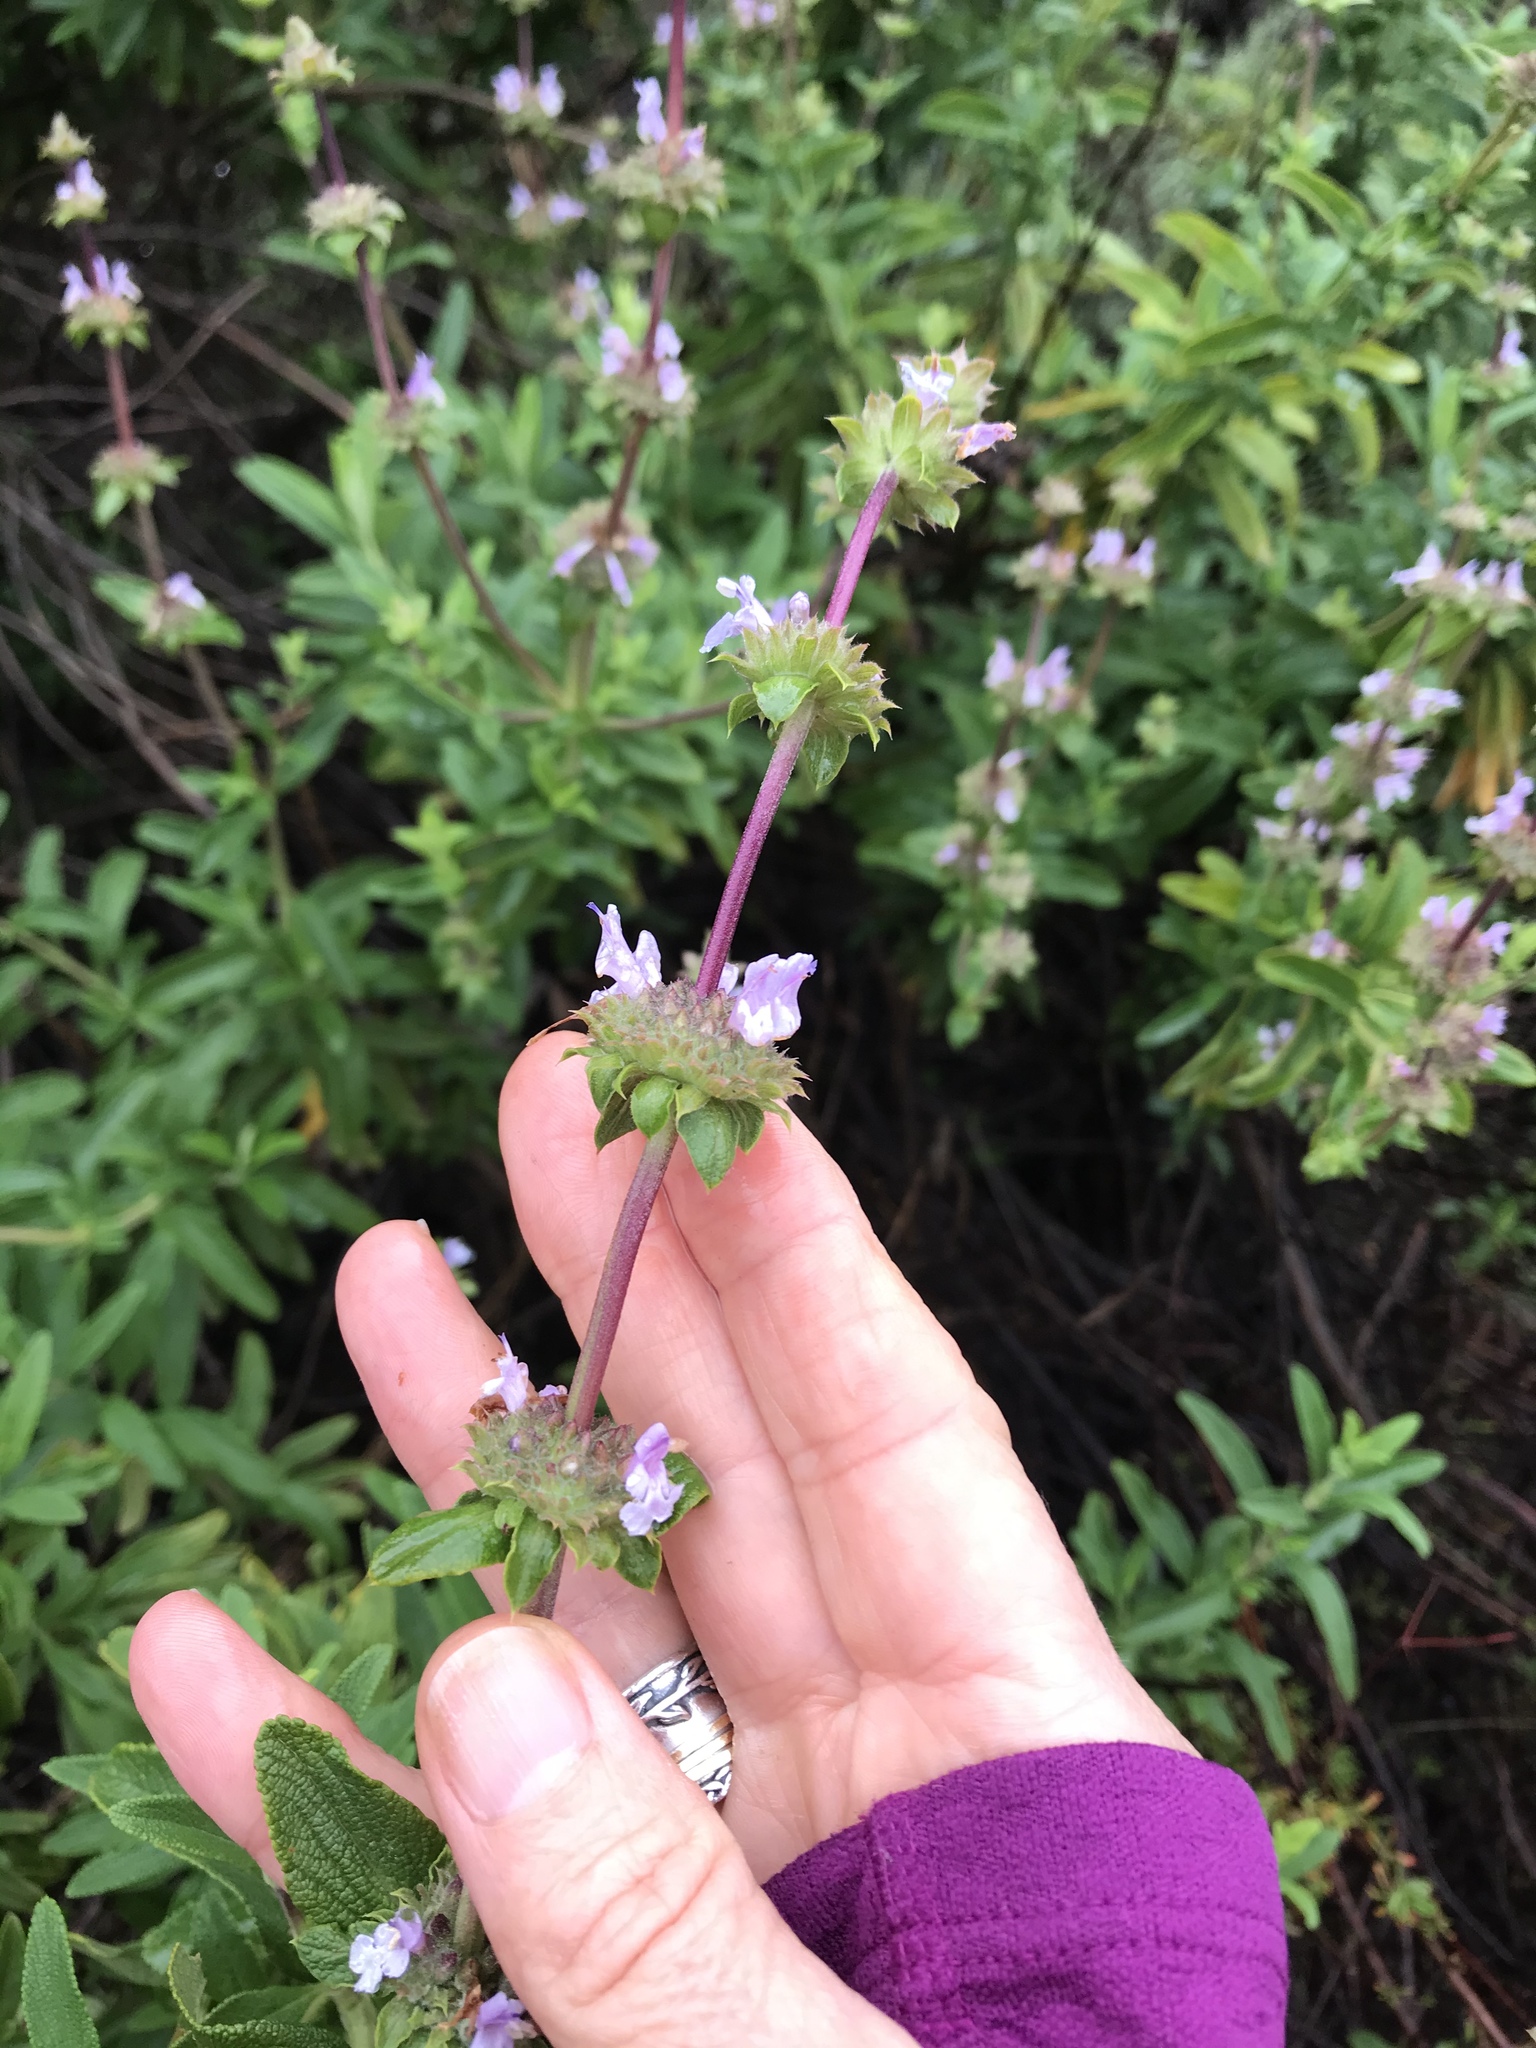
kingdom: Plantae
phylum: Tracheophyta
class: Magnoliopsida
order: Lamiales
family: Lamiaceae
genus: Salvia
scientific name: Salvia mellifera
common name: Black sage
